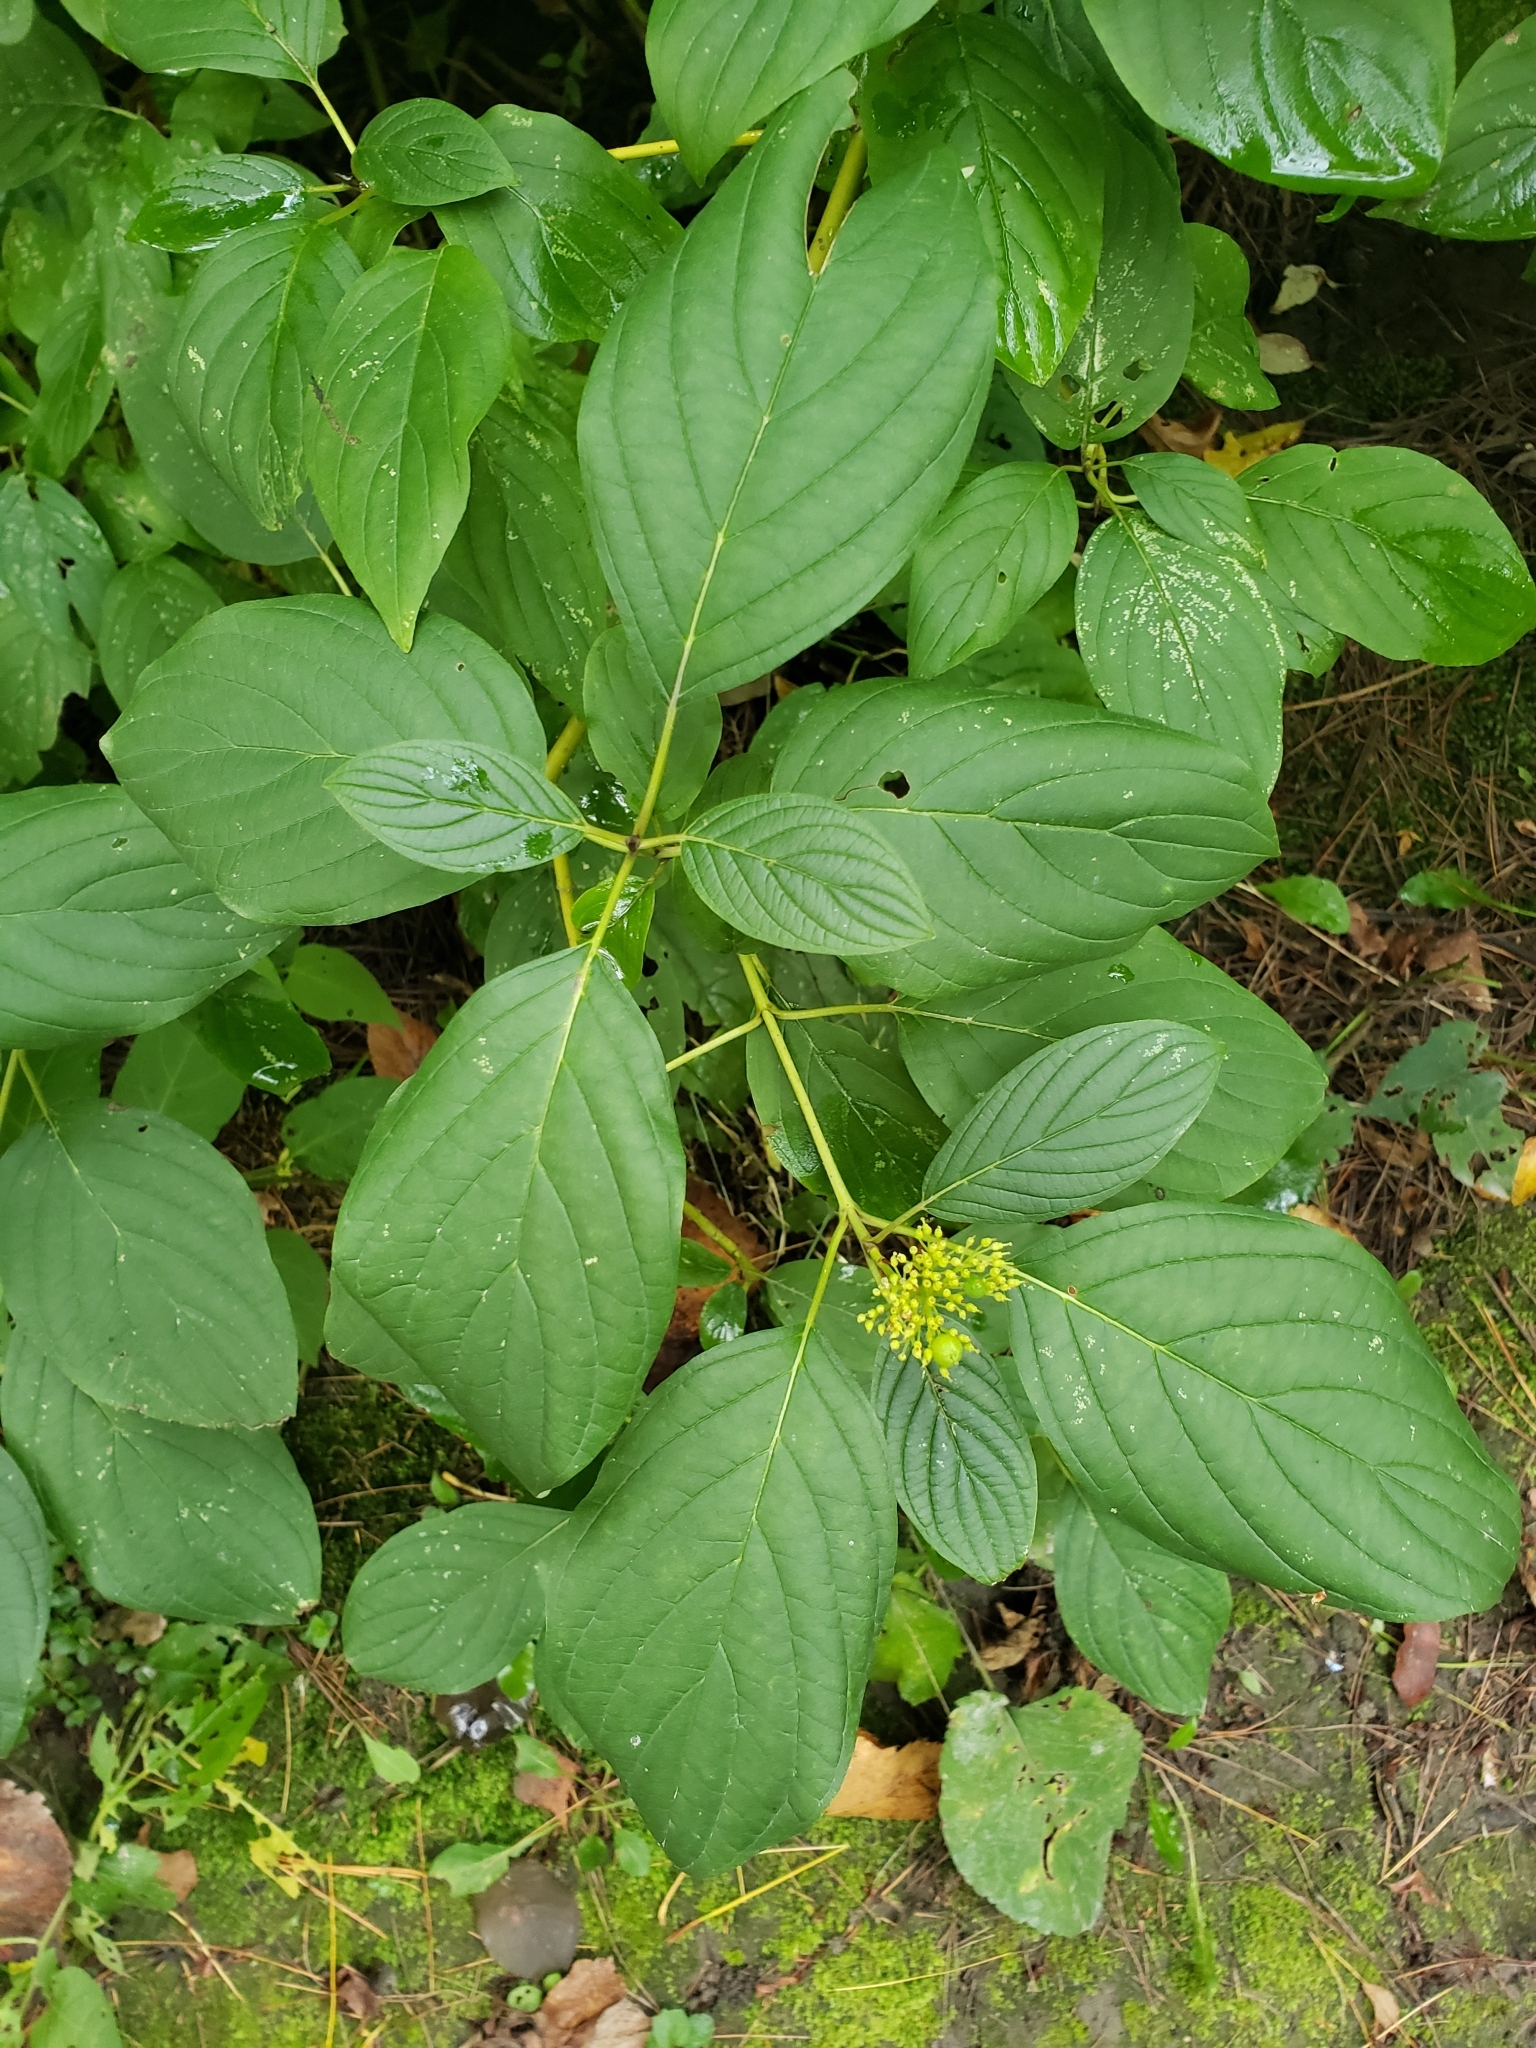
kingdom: Plantae
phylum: Tracheophyta
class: Magnoliopsida
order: Cornales
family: Cornaceae
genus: Cornus
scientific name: Cornus sericea
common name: Red-osier dogwood
